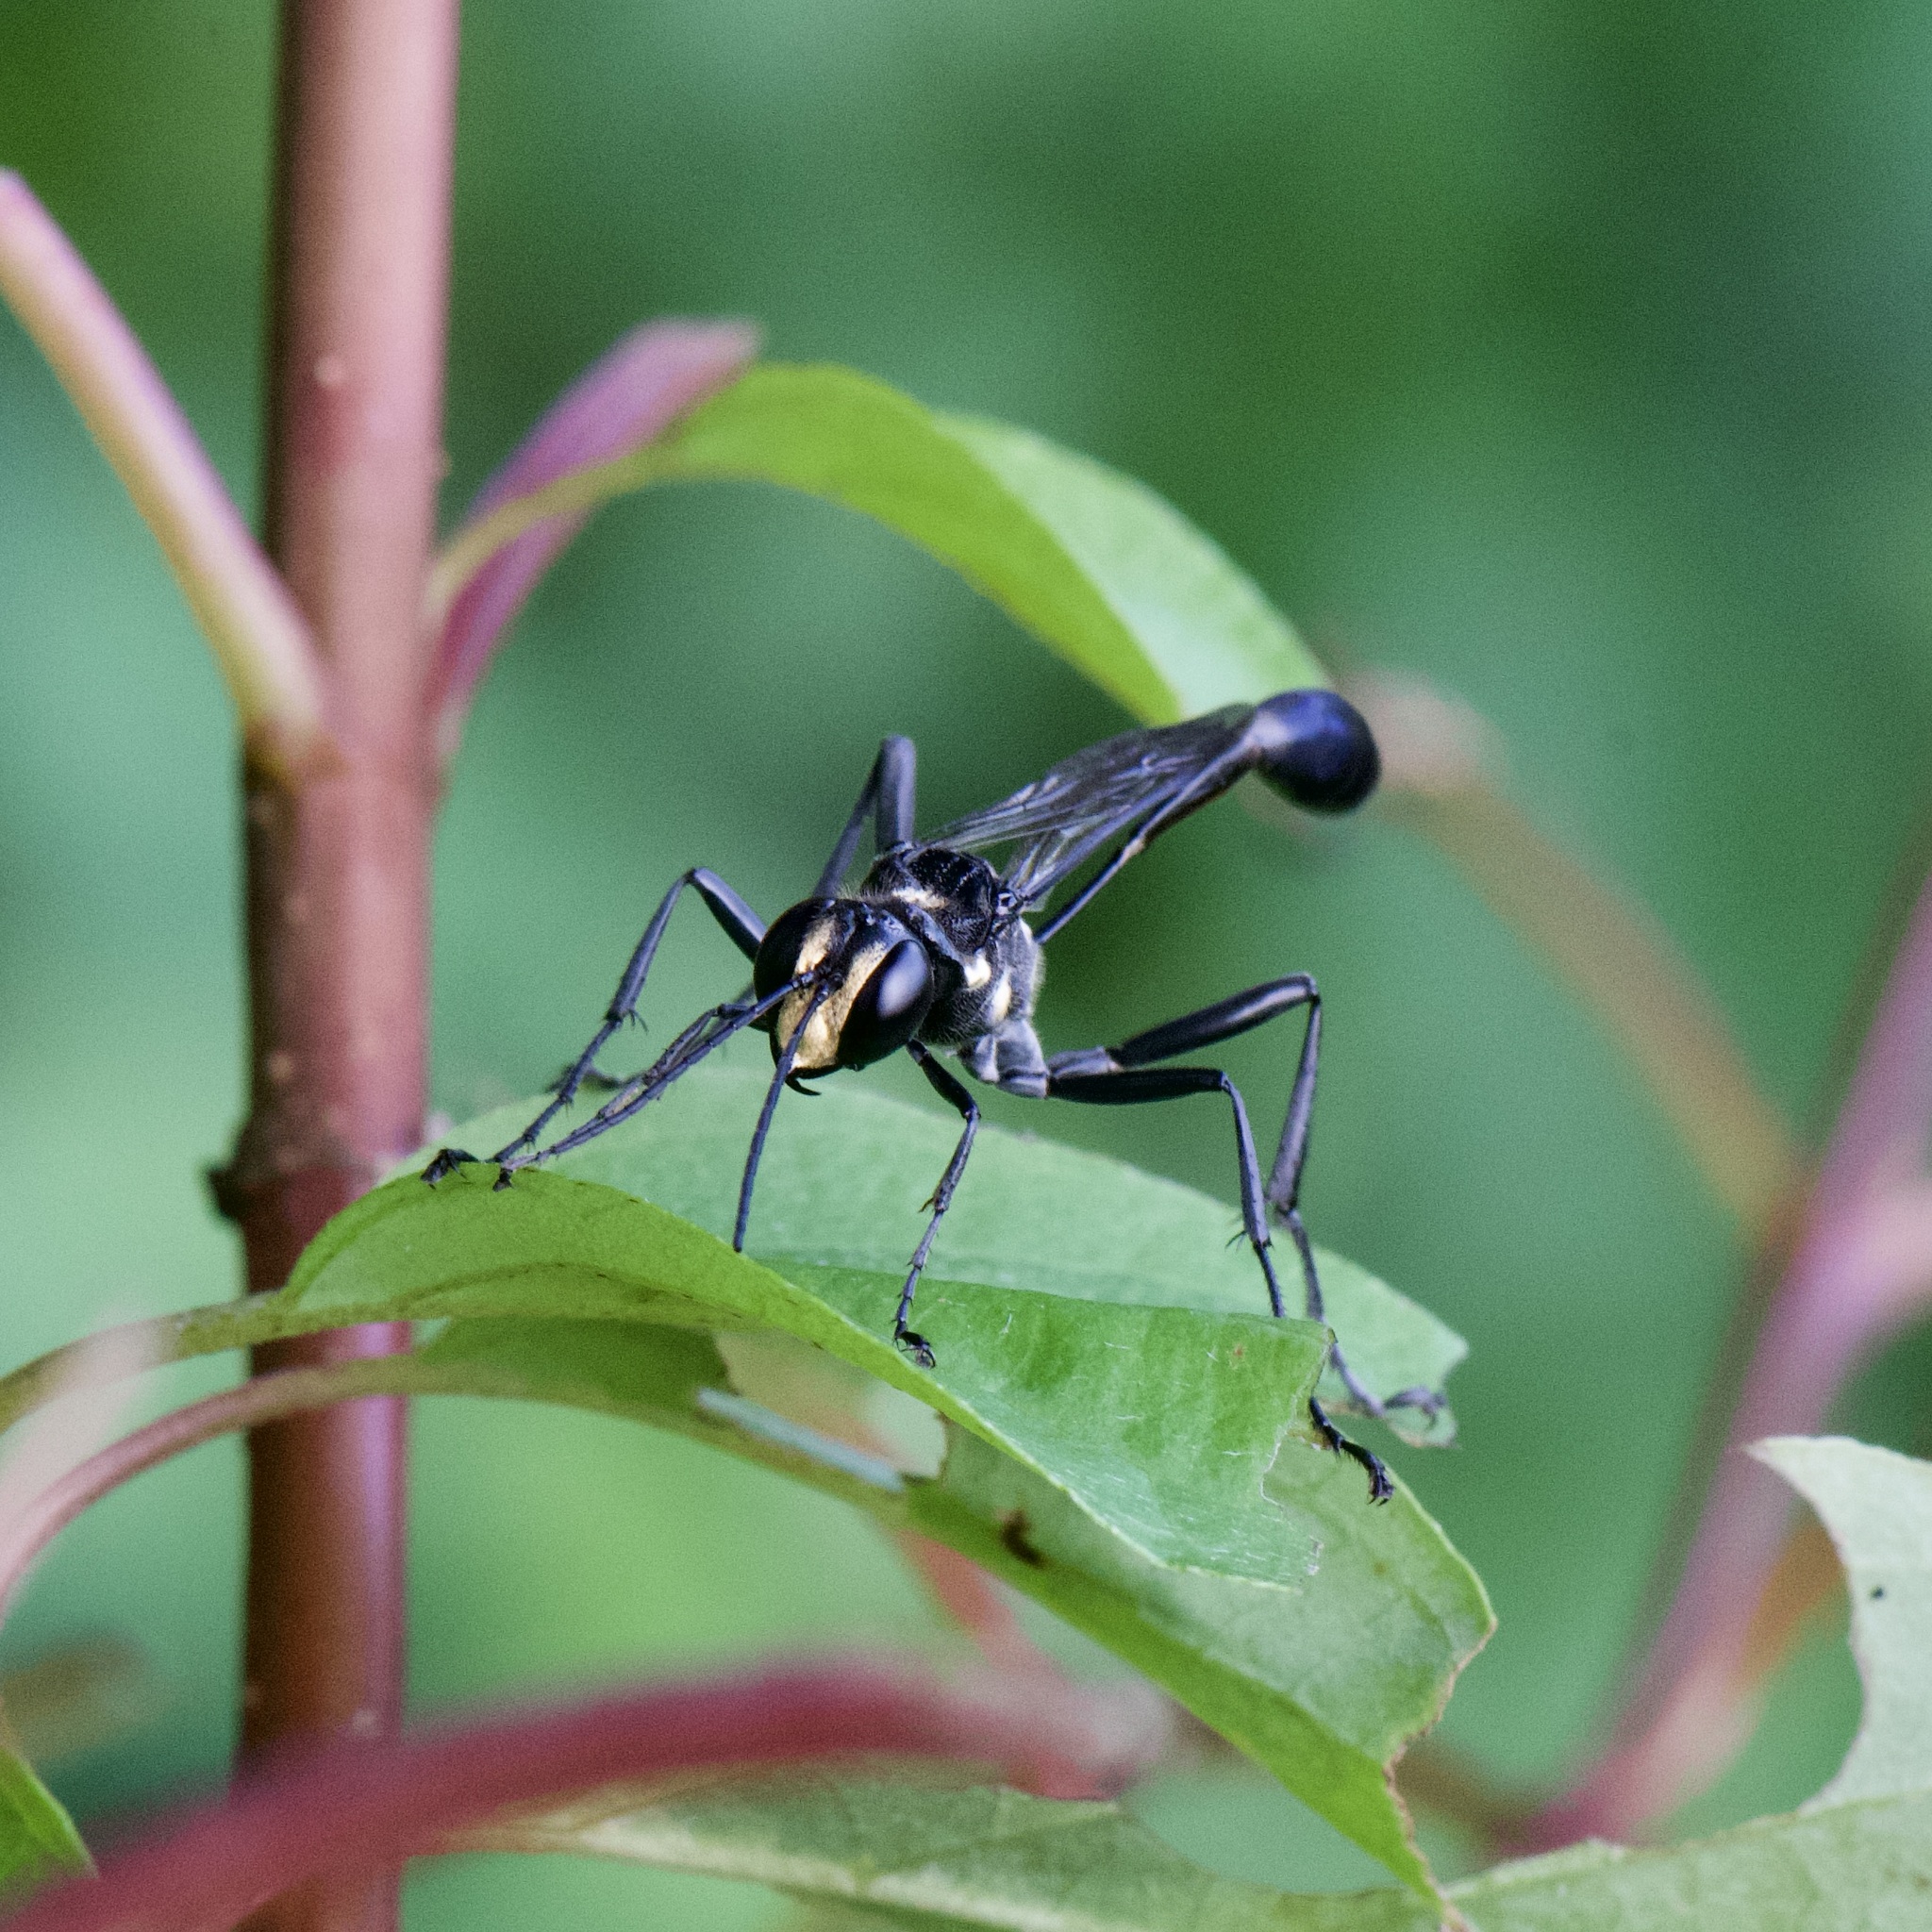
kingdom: Animalia
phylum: Arthropoda
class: Insecta
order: Hymenoptera
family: Sphecidae
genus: Eremnophila
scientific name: Eremnophila aureonotata
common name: Gold-marked thread-waisted wasp
